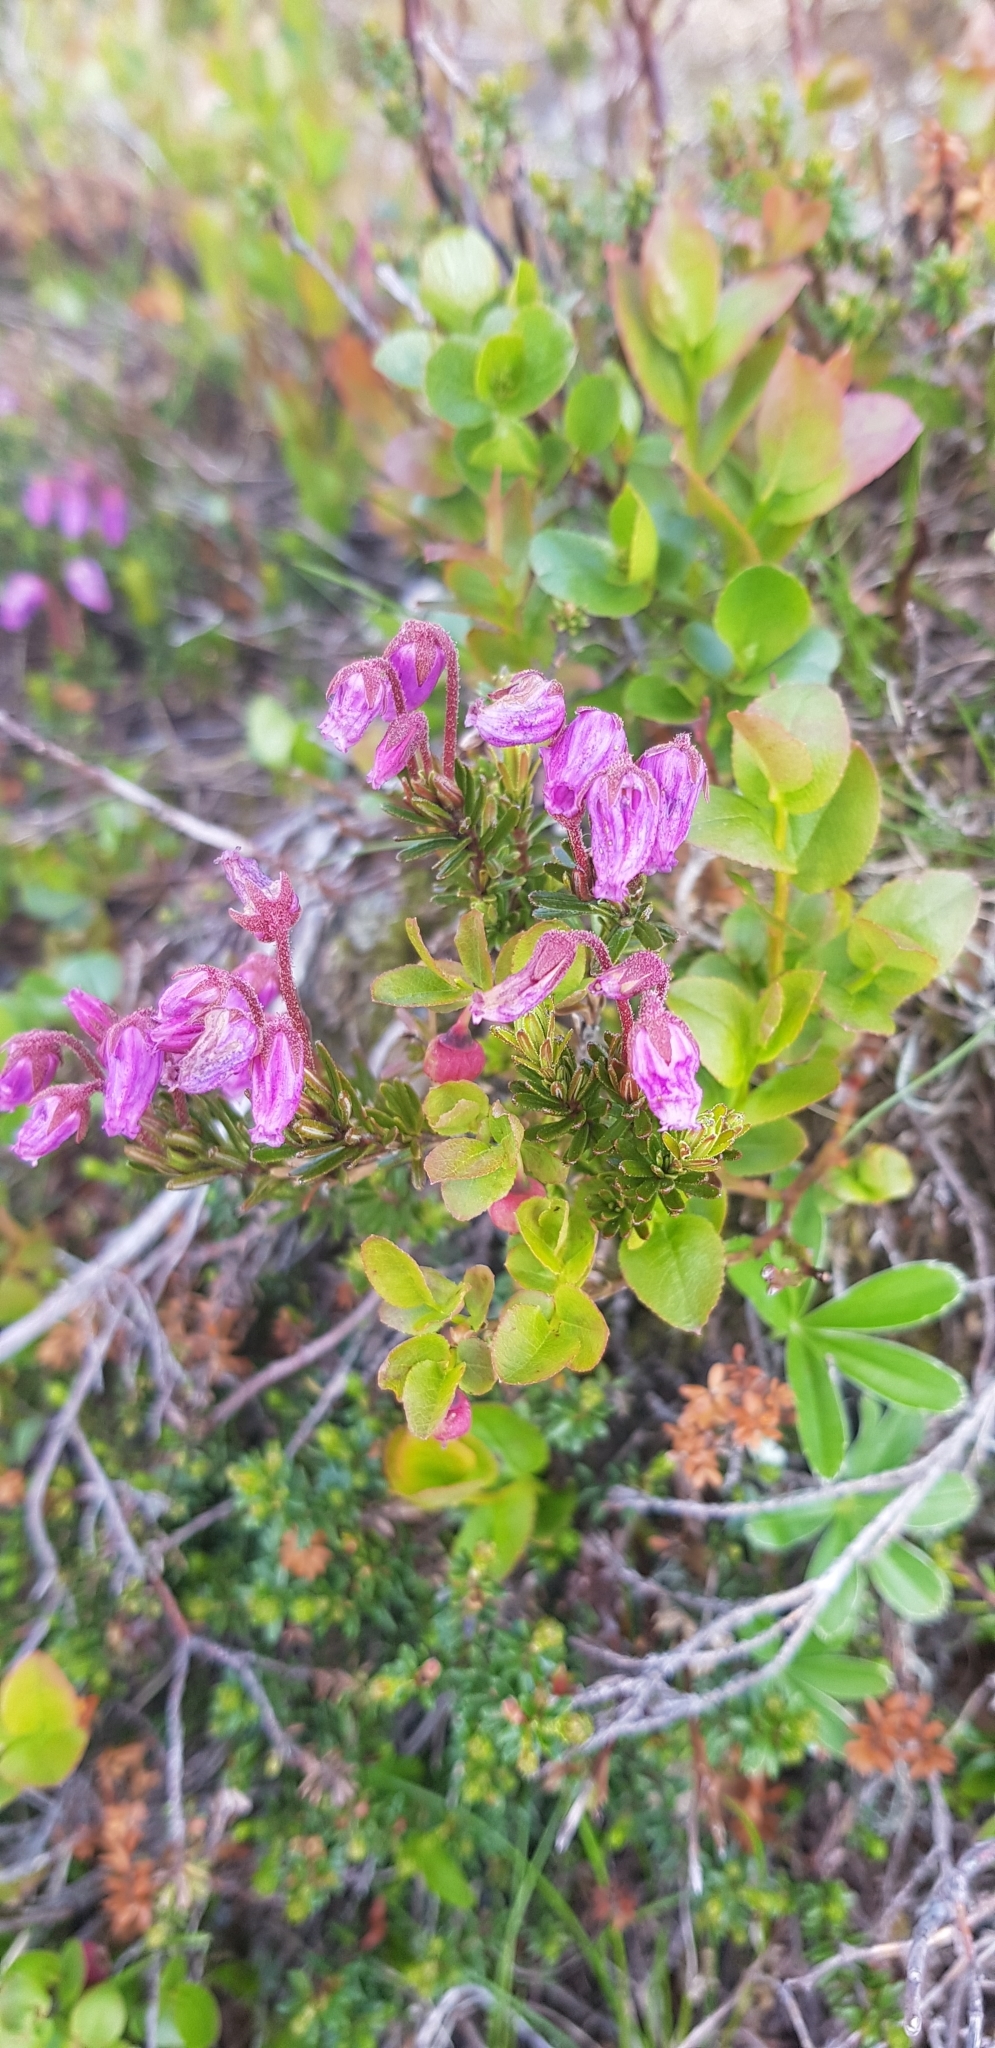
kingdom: Plantae
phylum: Tracheophyta
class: Magnoliopsida
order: Ericales
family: Ericaceae
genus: Phyllodoce
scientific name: Phyllodoce caerulea
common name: Blue heath
